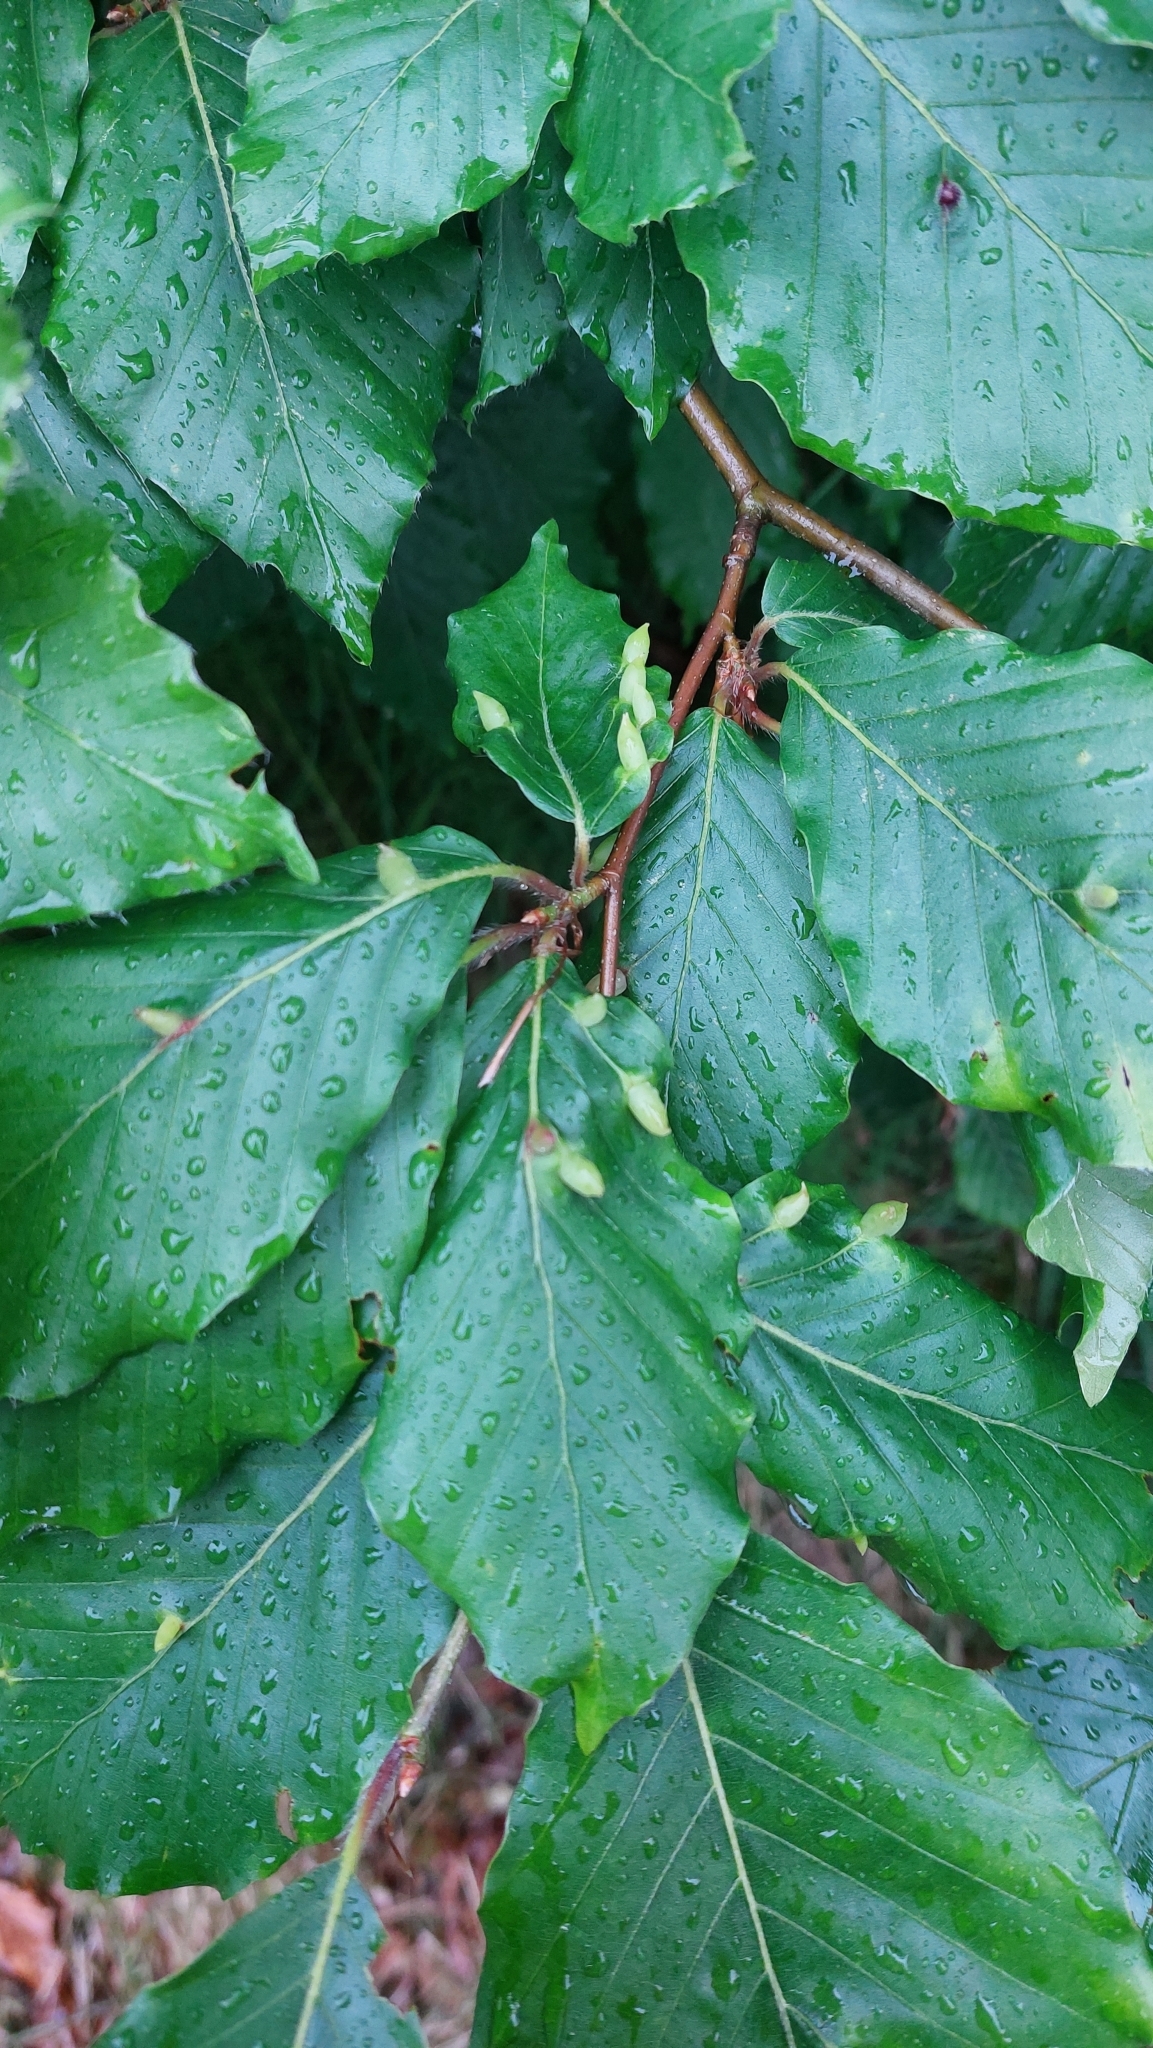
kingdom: Animalia
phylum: Arthropoda
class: Insecta
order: Diptera
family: Cecidomyiidae
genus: Mikiola
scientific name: Mikiola fagi
